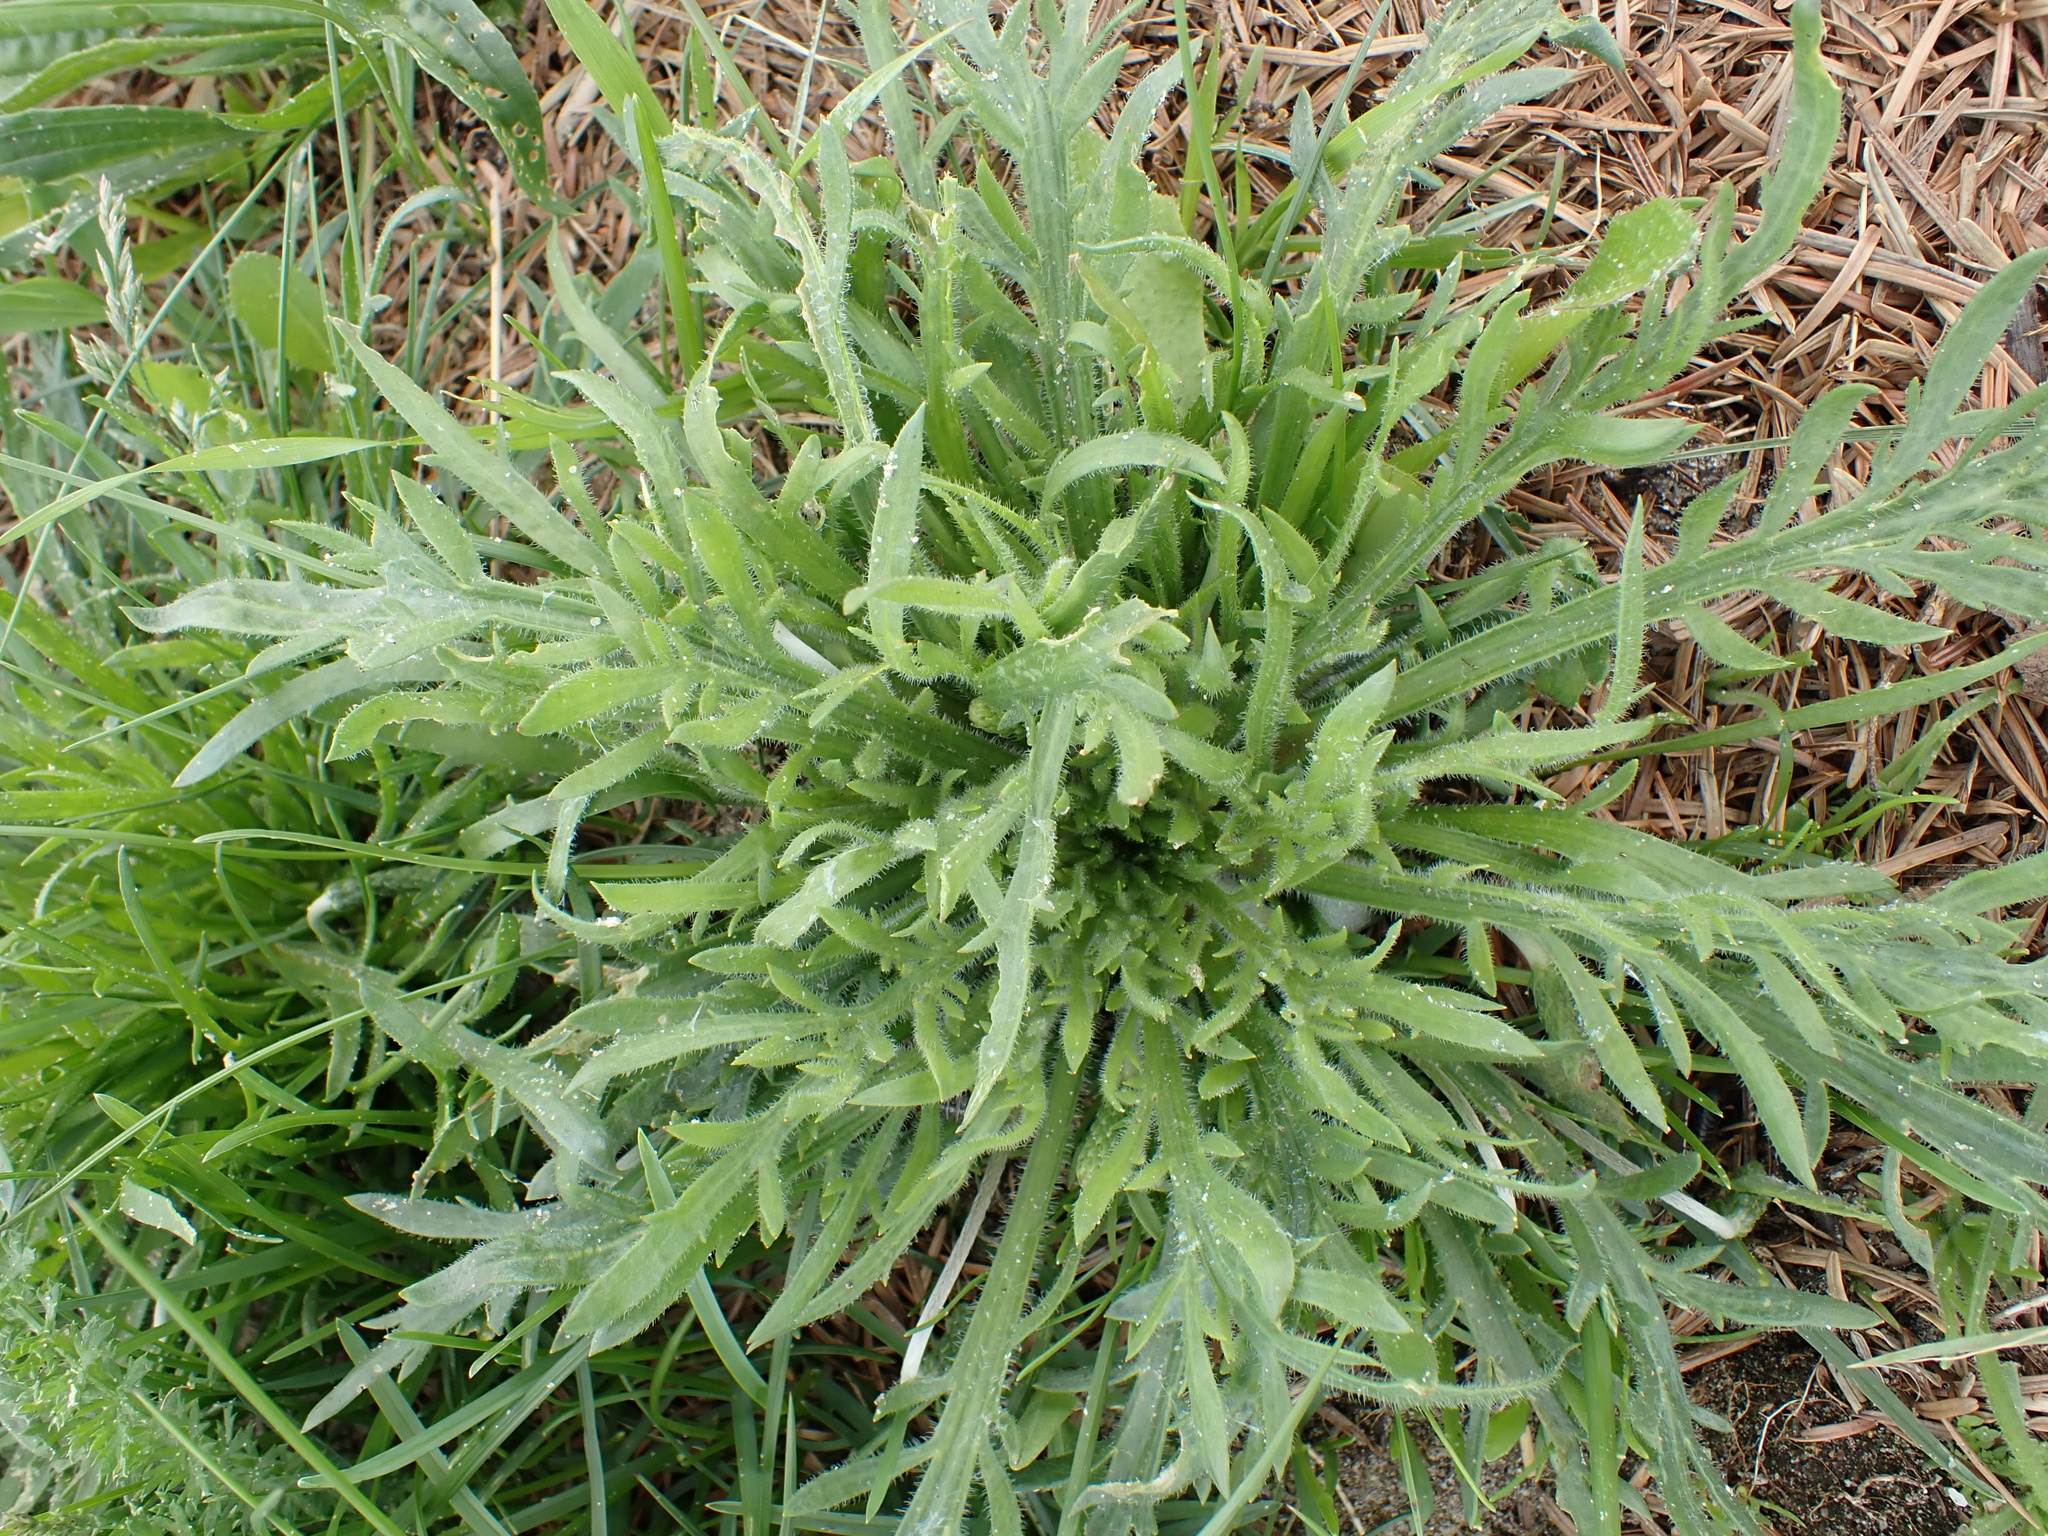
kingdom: Plantae
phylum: Tracheophyta
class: Magnoliopsida
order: Lamiales
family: Plantaginaceae
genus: Plantago
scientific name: Plantago coronopus
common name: Buck's-horn plantain
